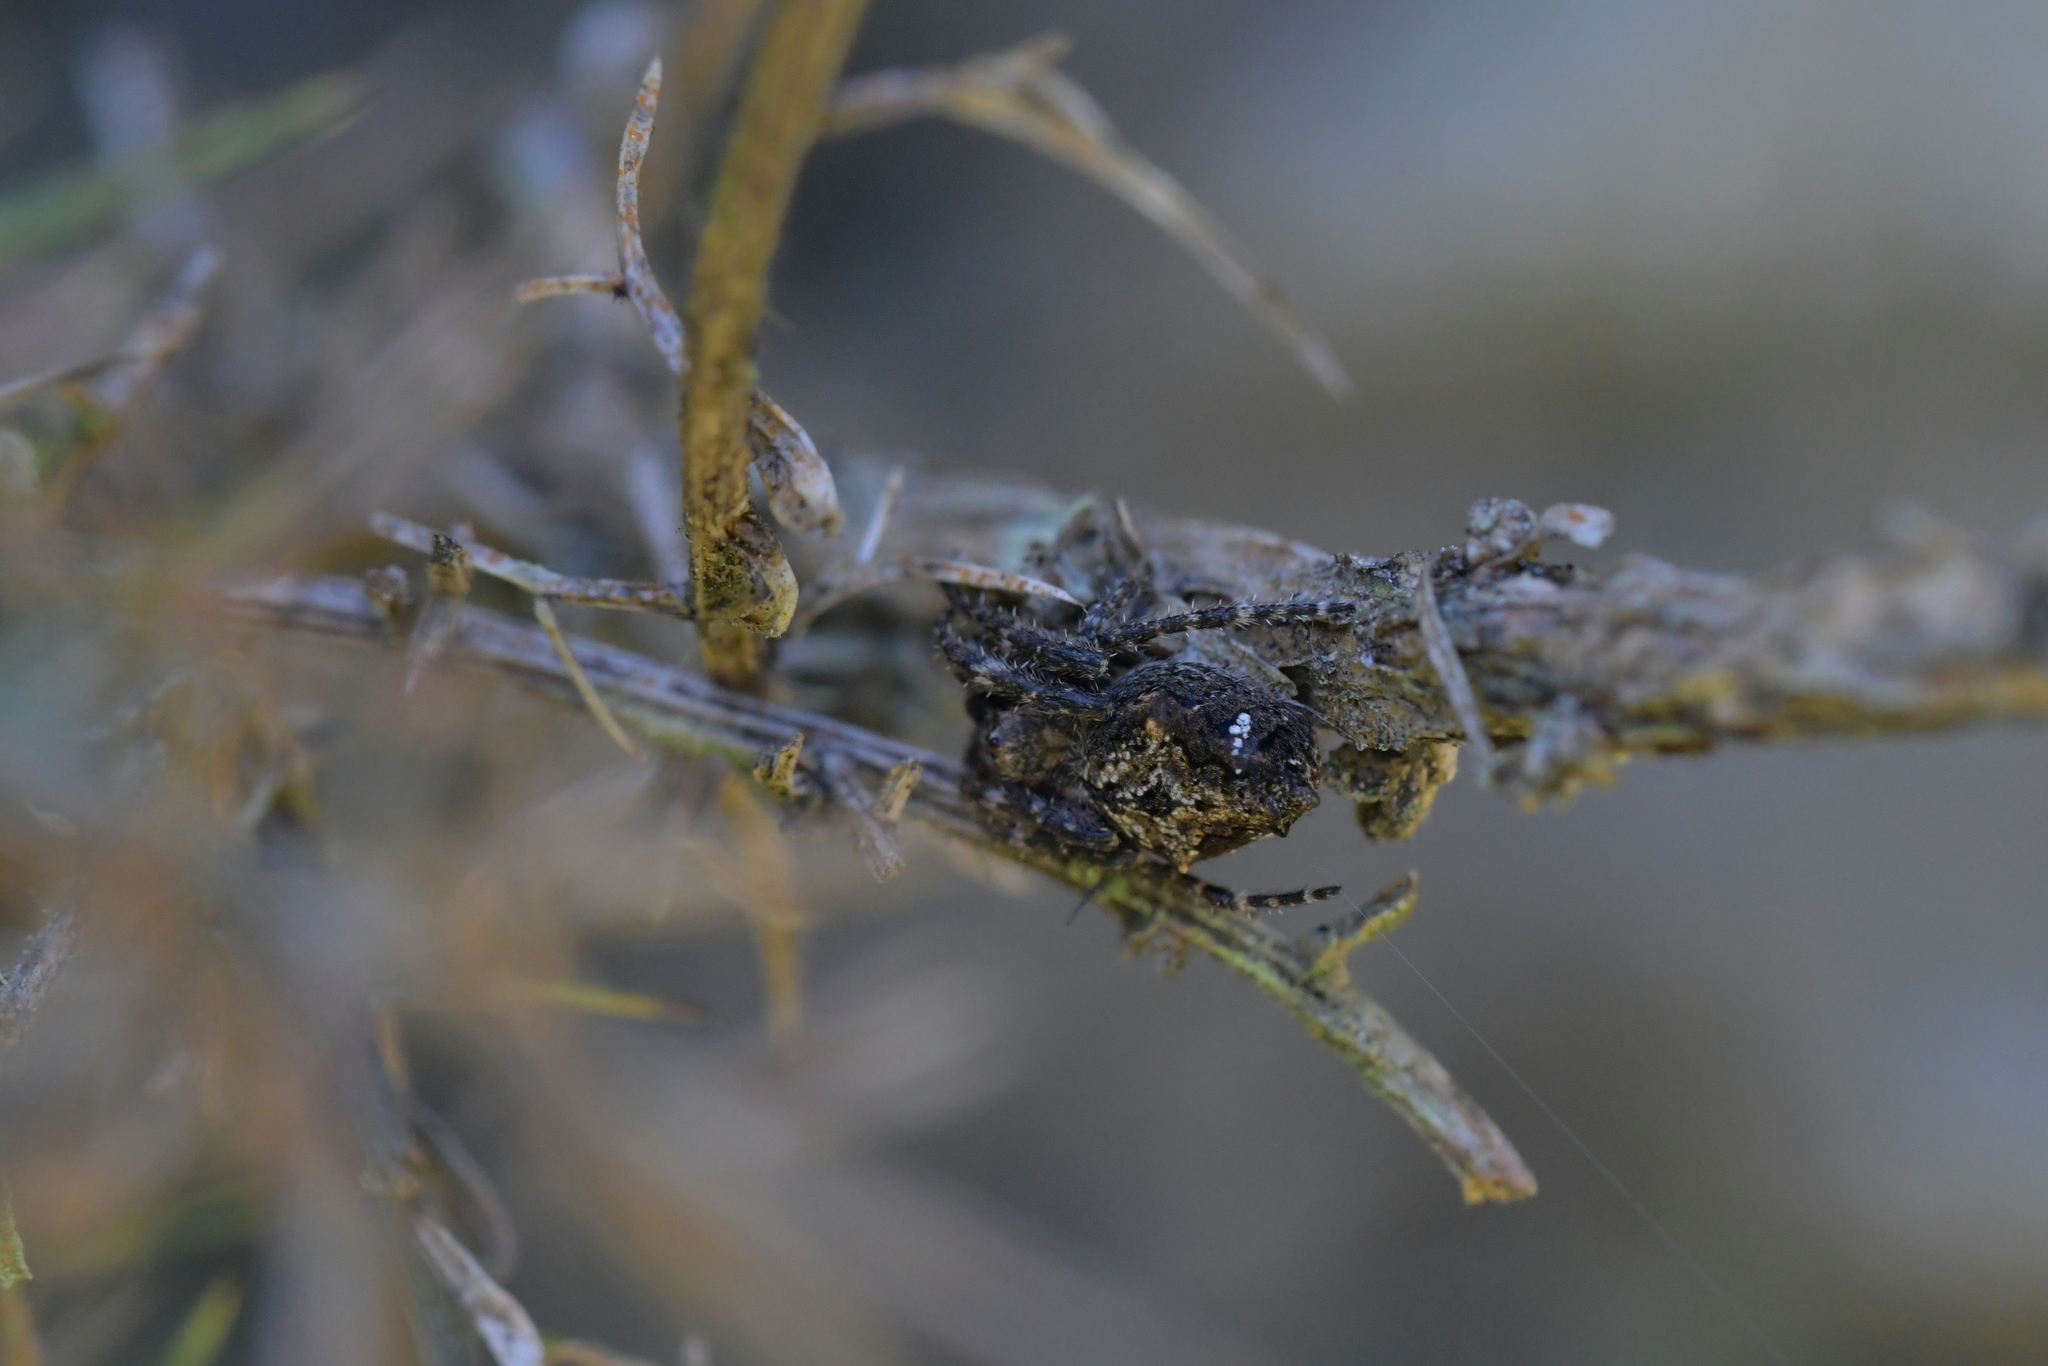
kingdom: Animalia
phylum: Arthropoda
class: Arachnida
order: Araneae
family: Araneidae
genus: Eriophora
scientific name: Eriophora pustulosa
